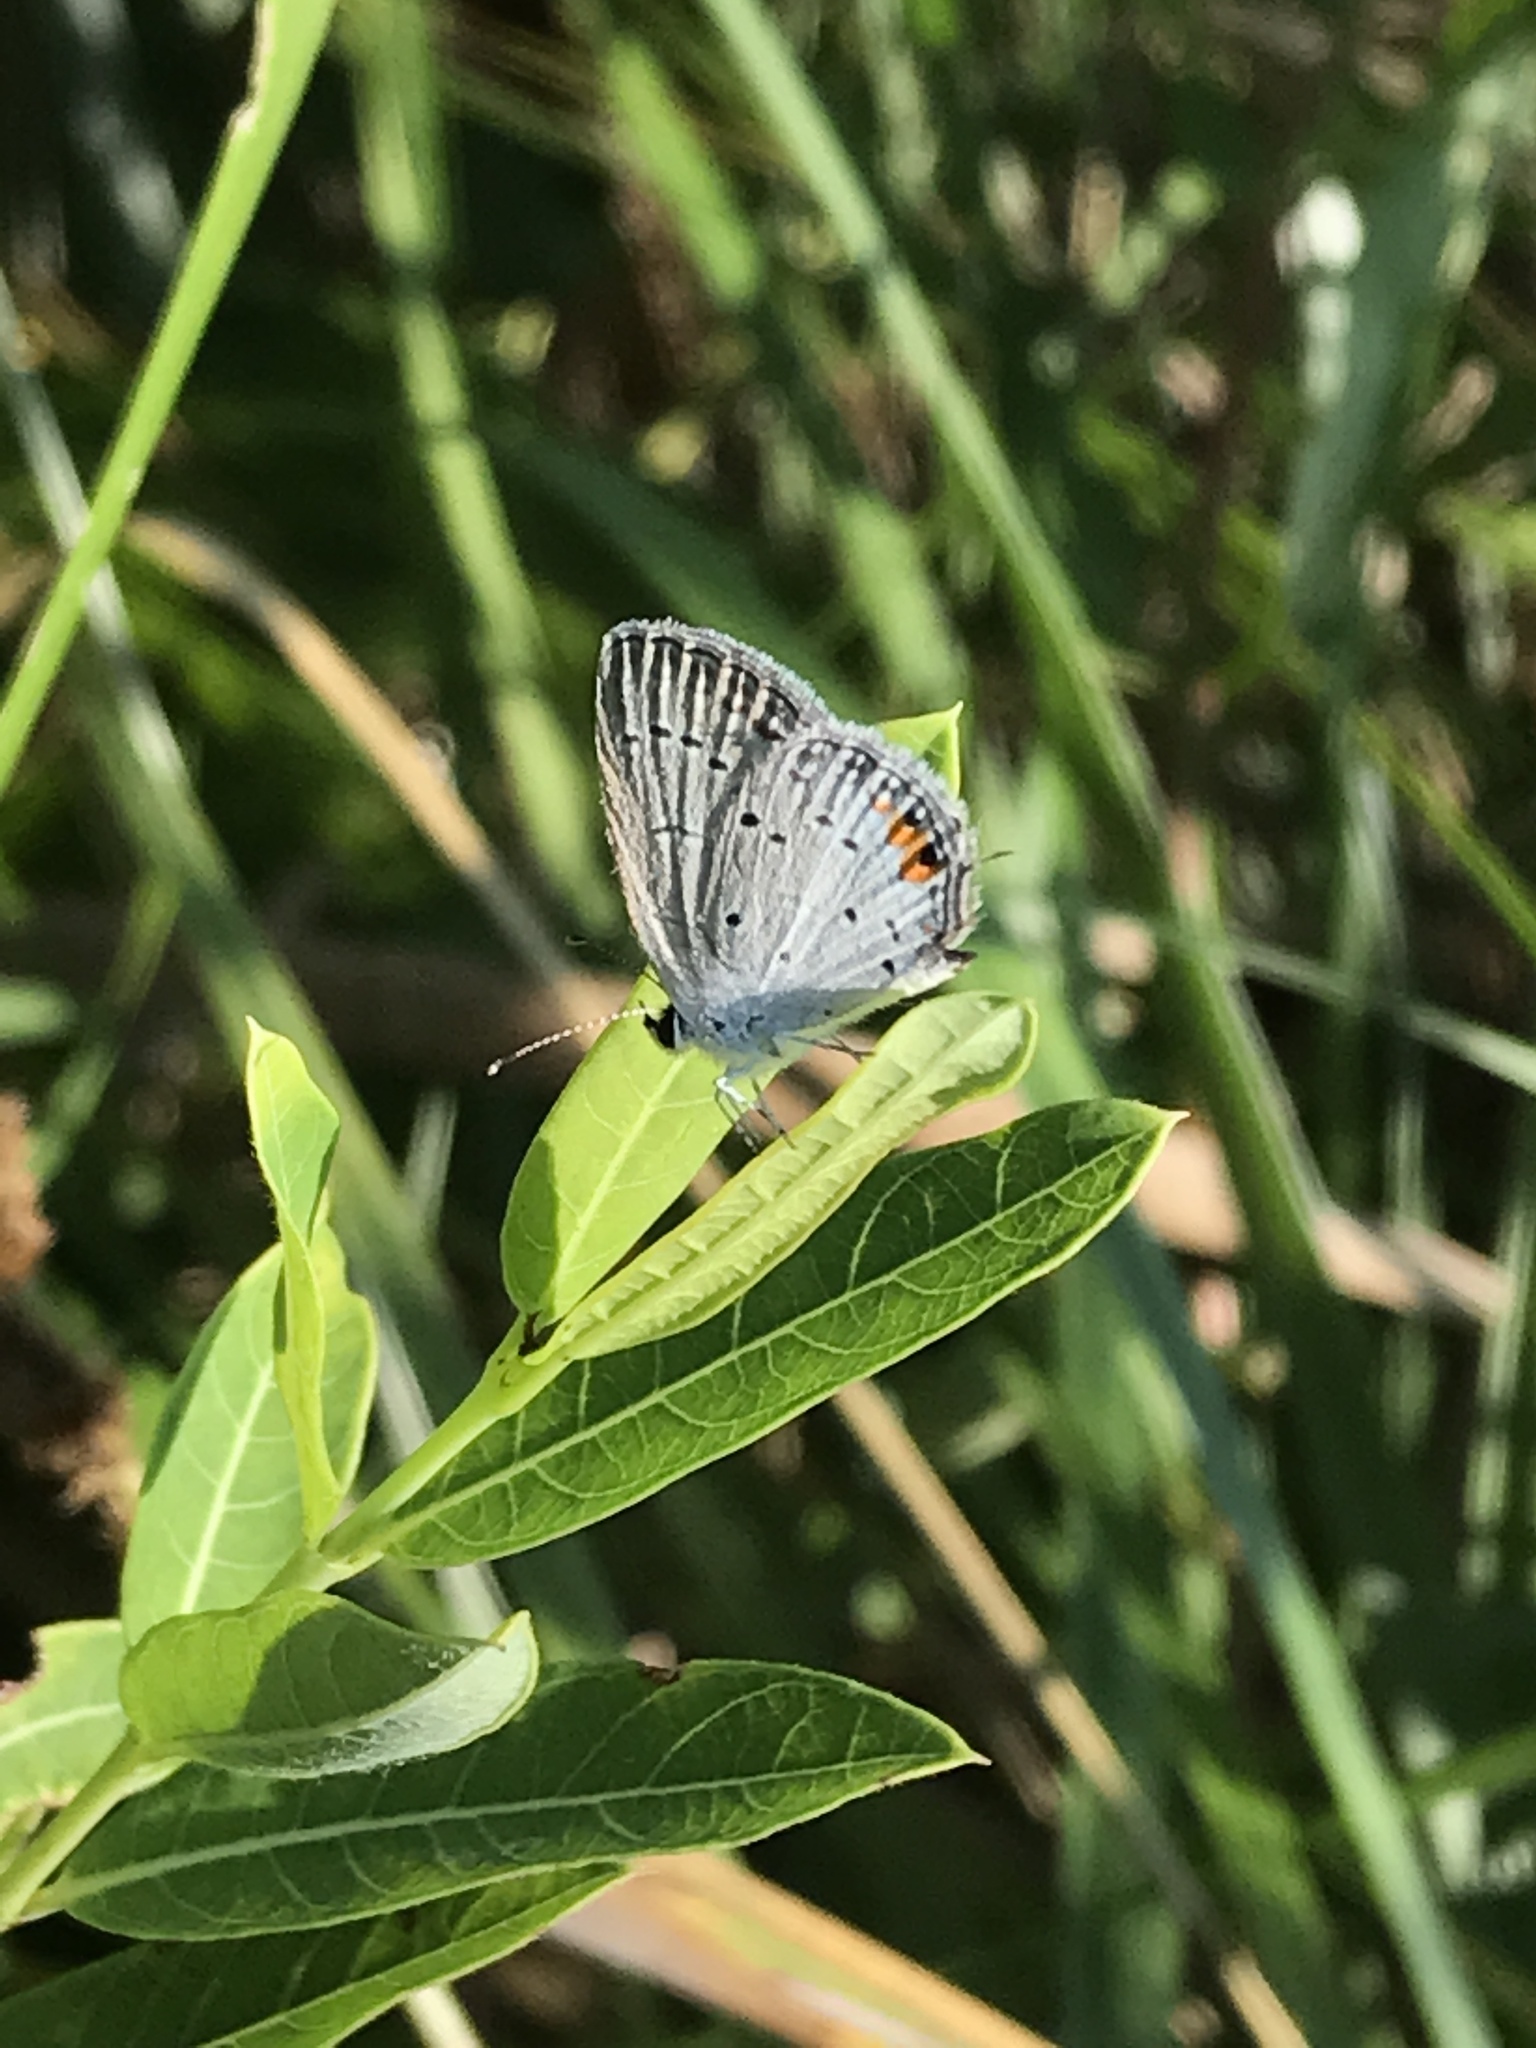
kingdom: Animalia
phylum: Arthropoda
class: Insecta
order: Lepidoptera
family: Lycaenidae
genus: Elkalyce
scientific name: Elkalyce comyntas
